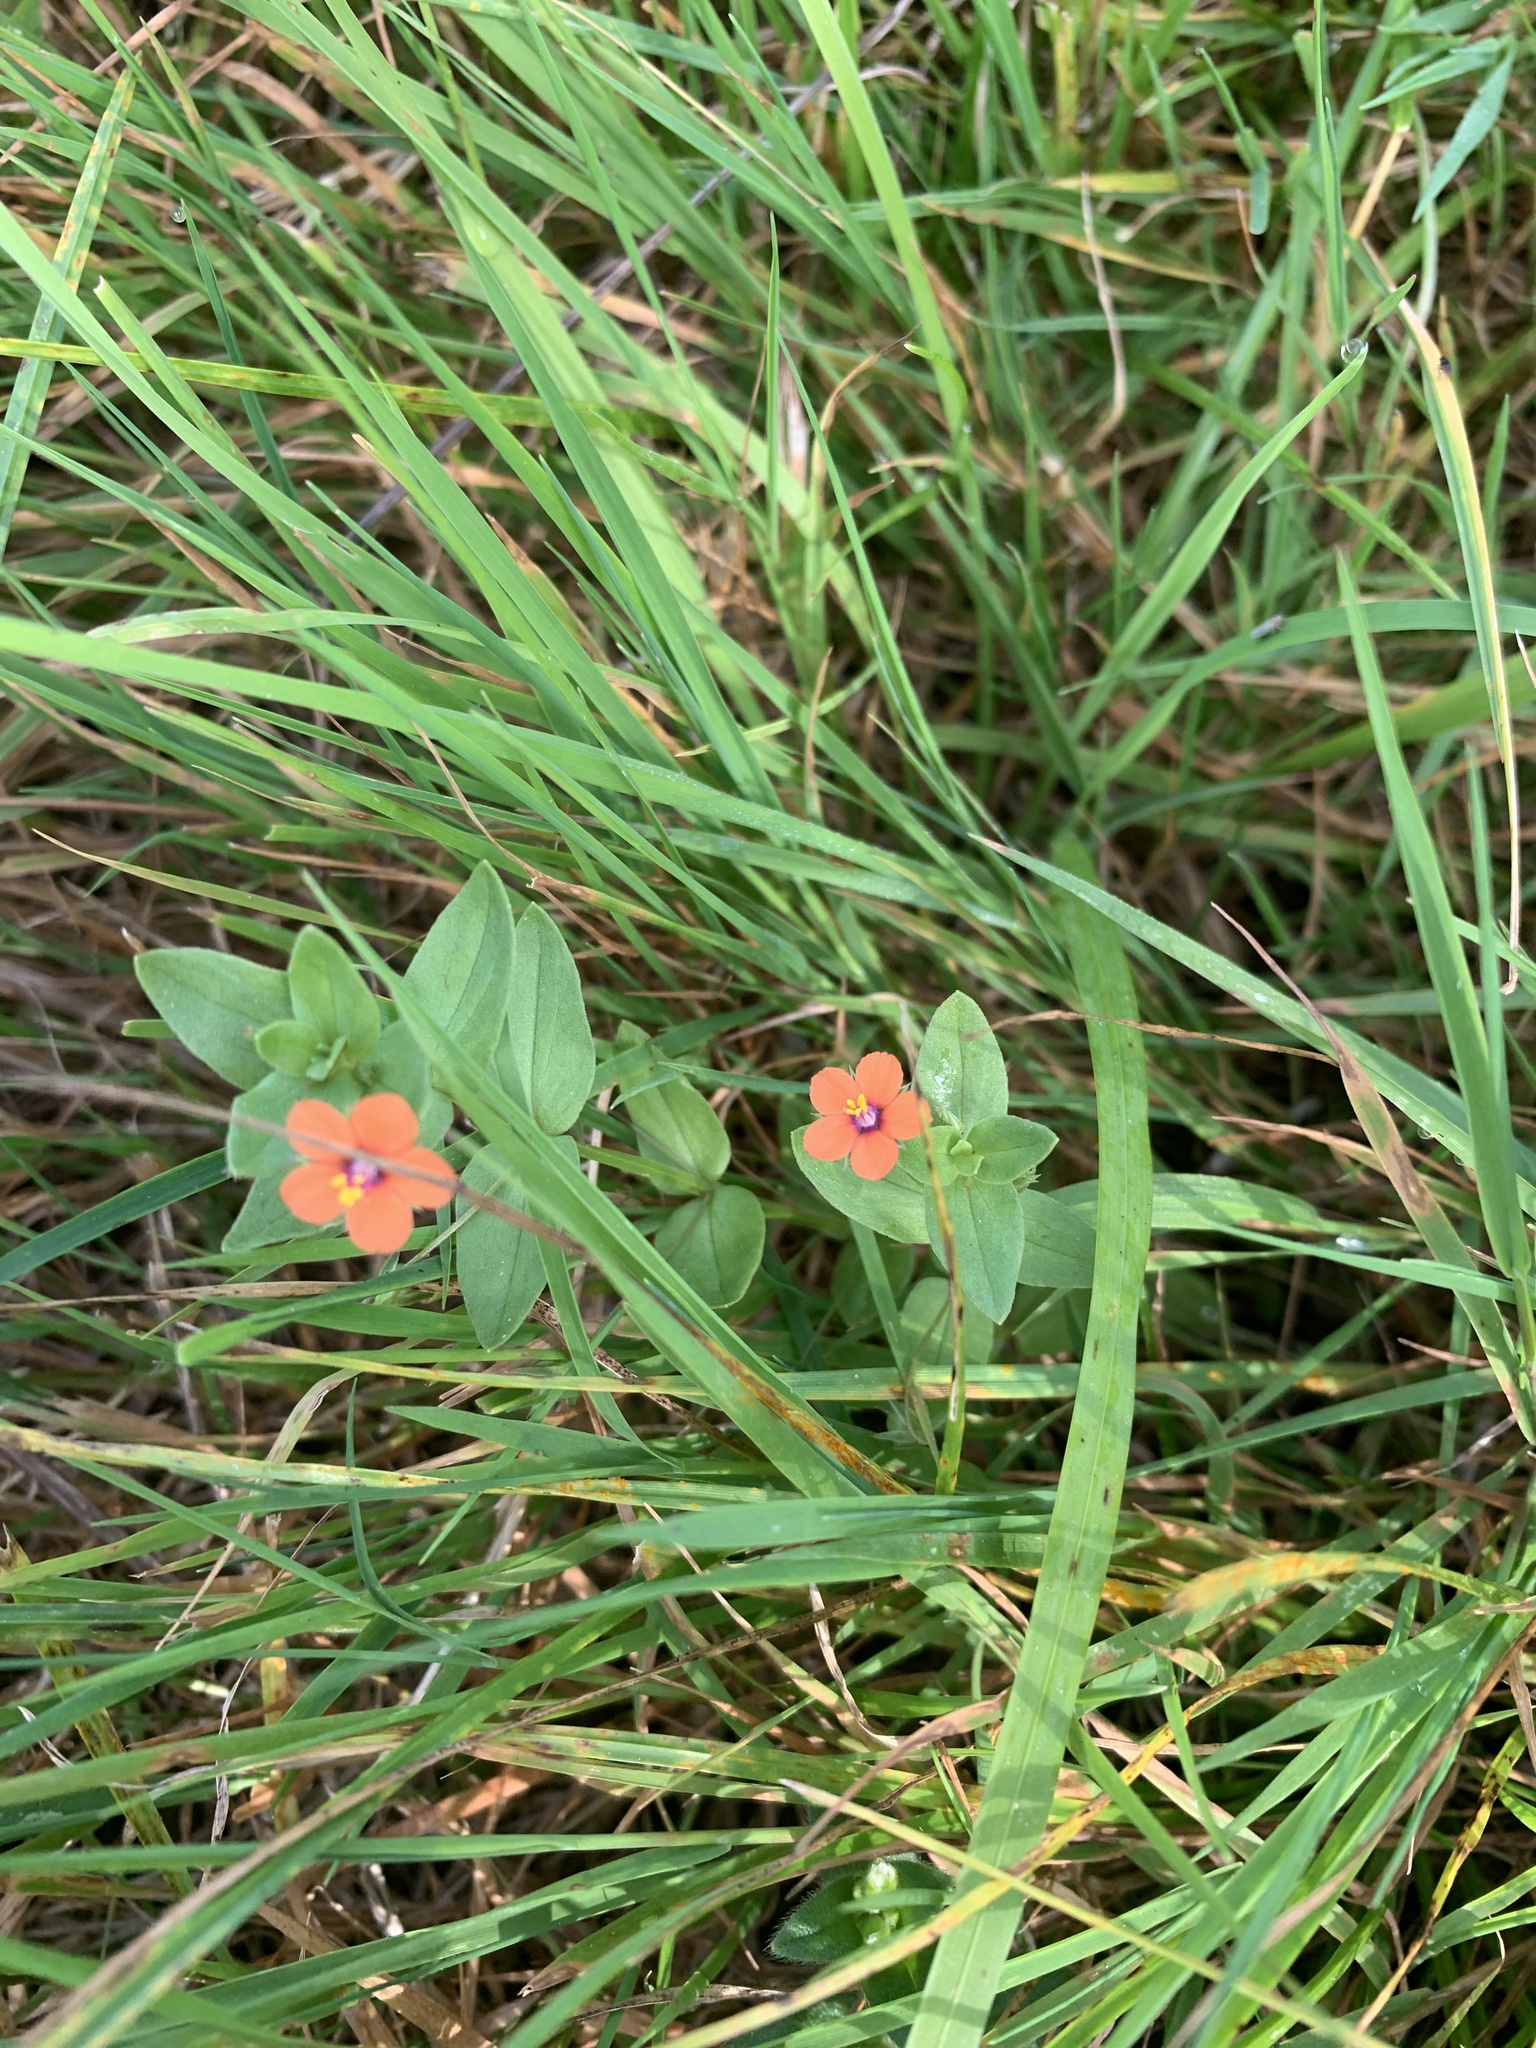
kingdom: Plantae
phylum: Tracheophyta
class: Magnoliopsida
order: Ericales
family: Primulaceae
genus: Lysimachia
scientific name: Lysimachia arvensis
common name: Scarlet pimpernel
